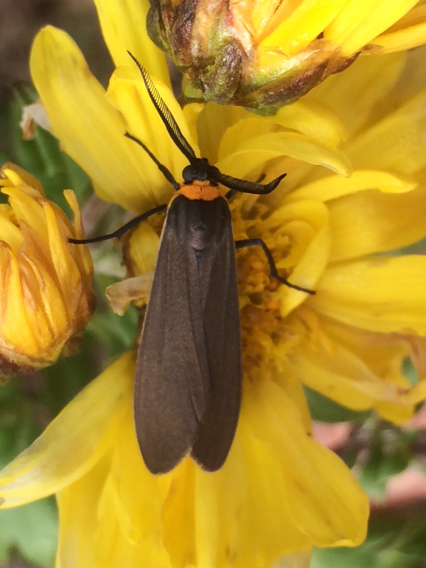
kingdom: Animalia
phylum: Arthropoda
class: Insecta
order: Lepidoptera
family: Erebidae
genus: Cisseps
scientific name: Cisseps fulvicollis
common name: Yellow-collared scape moth
